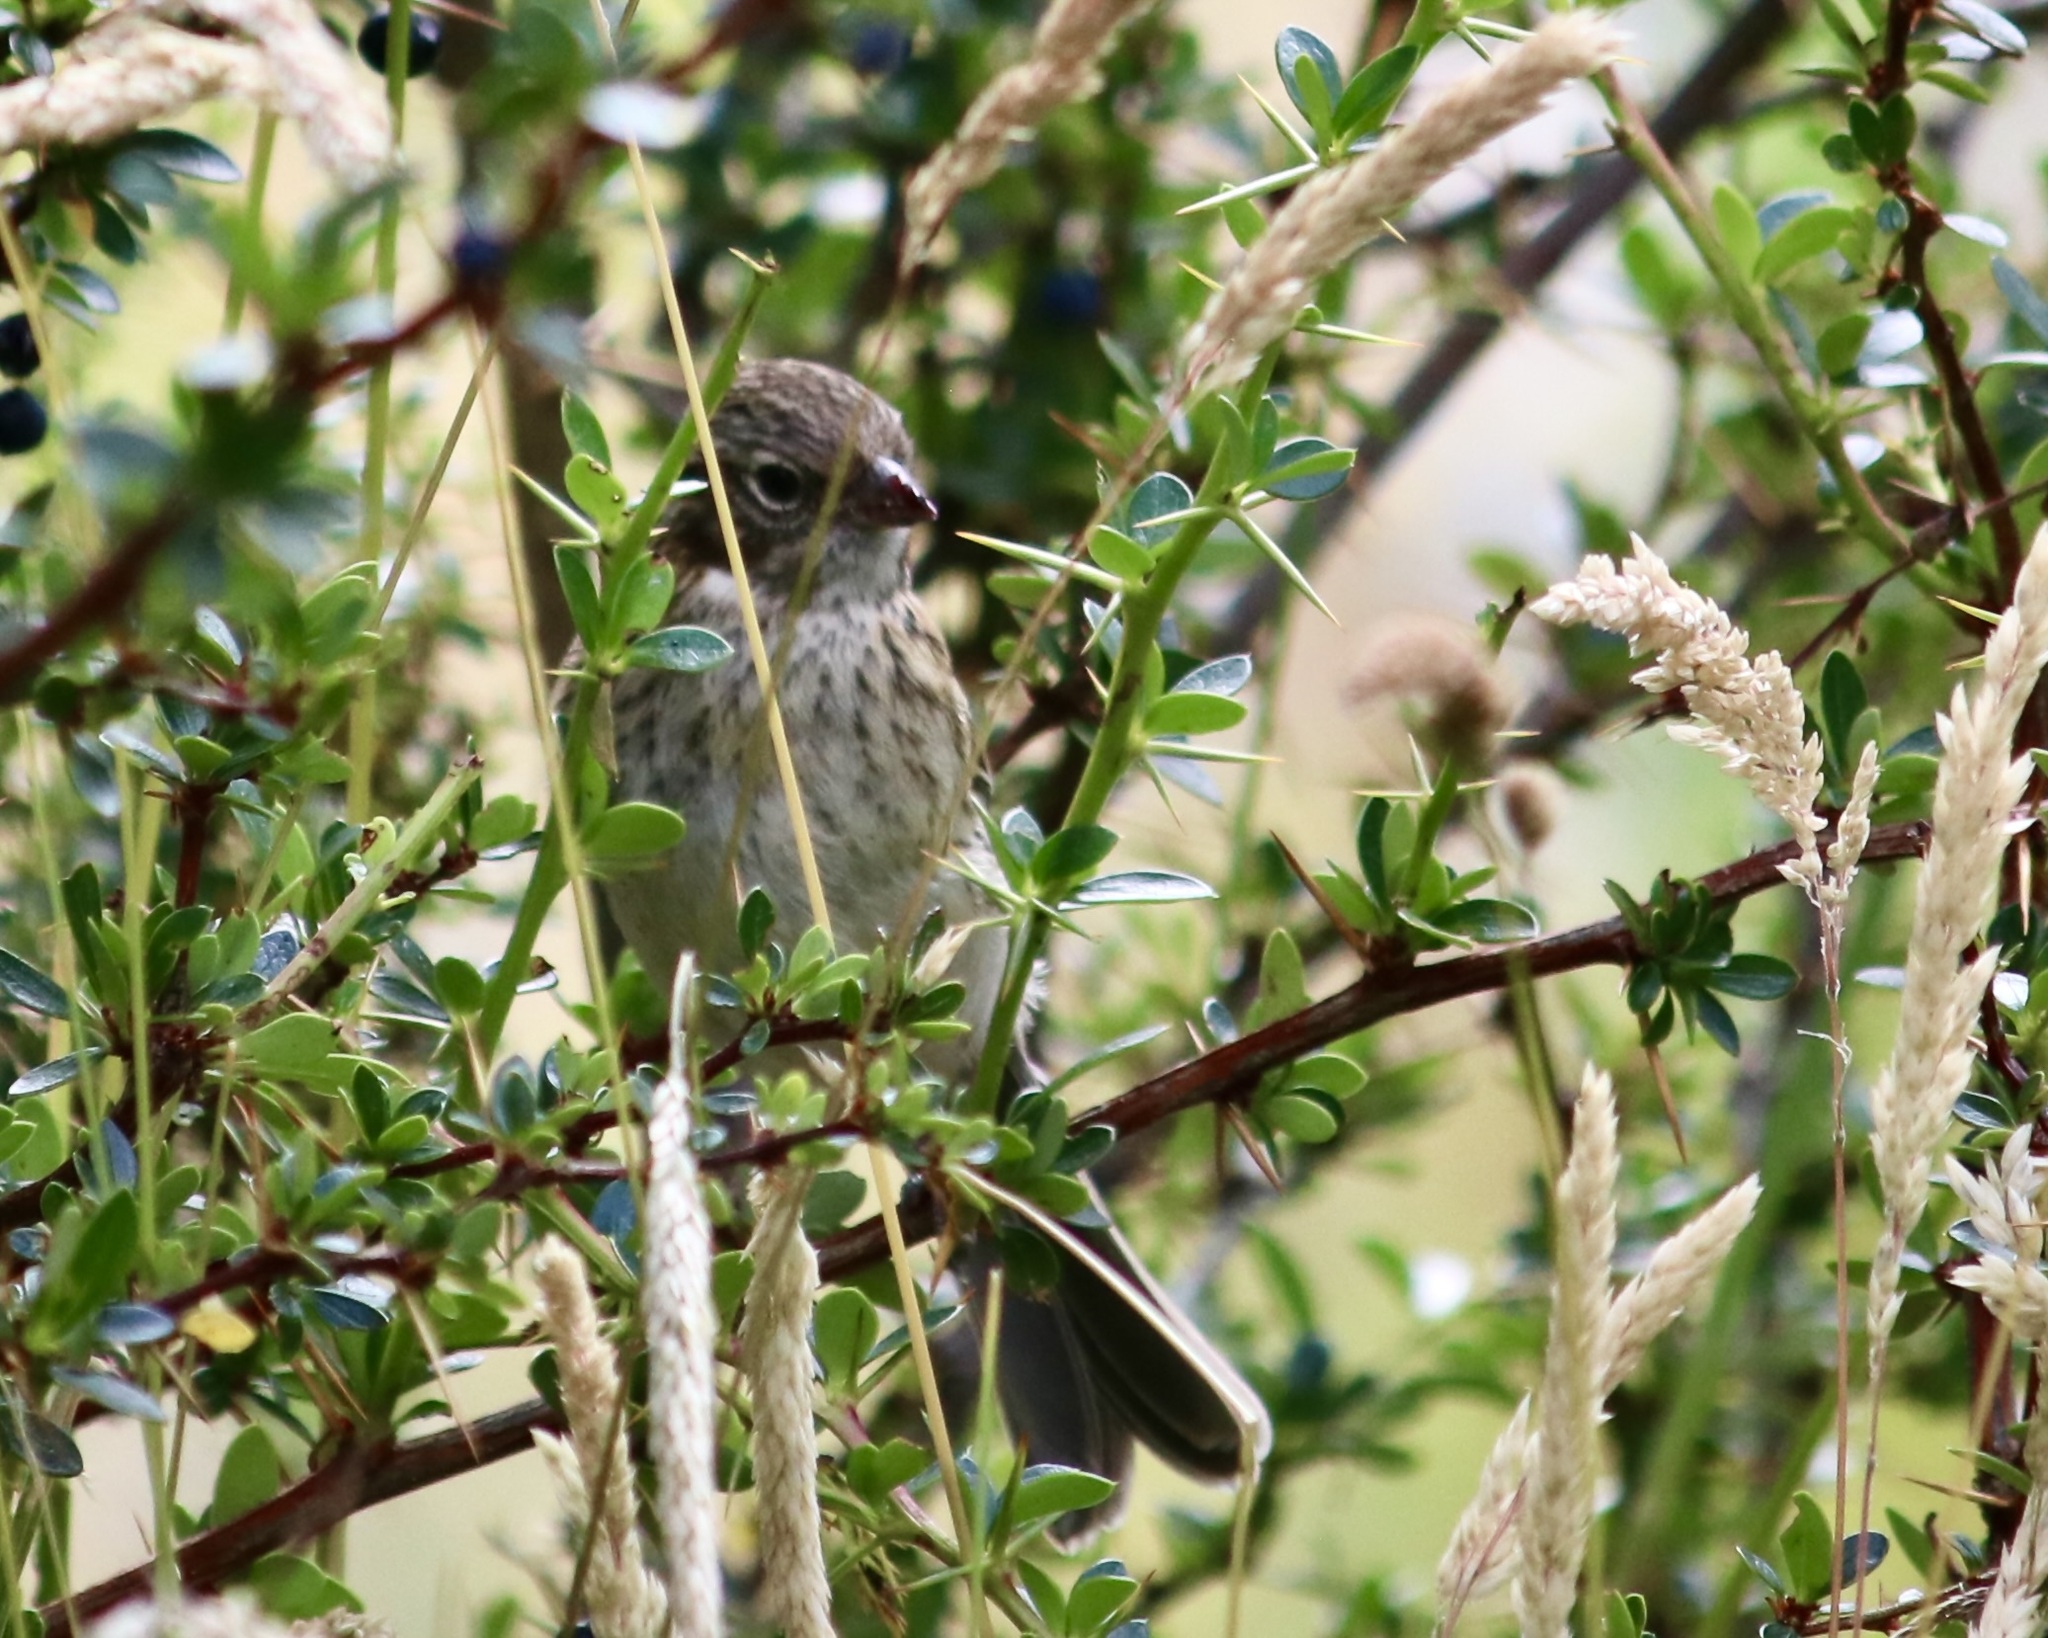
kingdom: Animalia
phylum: Chordata
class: Aves
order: Passeriformes
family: Passerellidae
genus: Zonotrichia
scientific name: Zonotrichia capensis
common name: Rufous-collared sparrow
